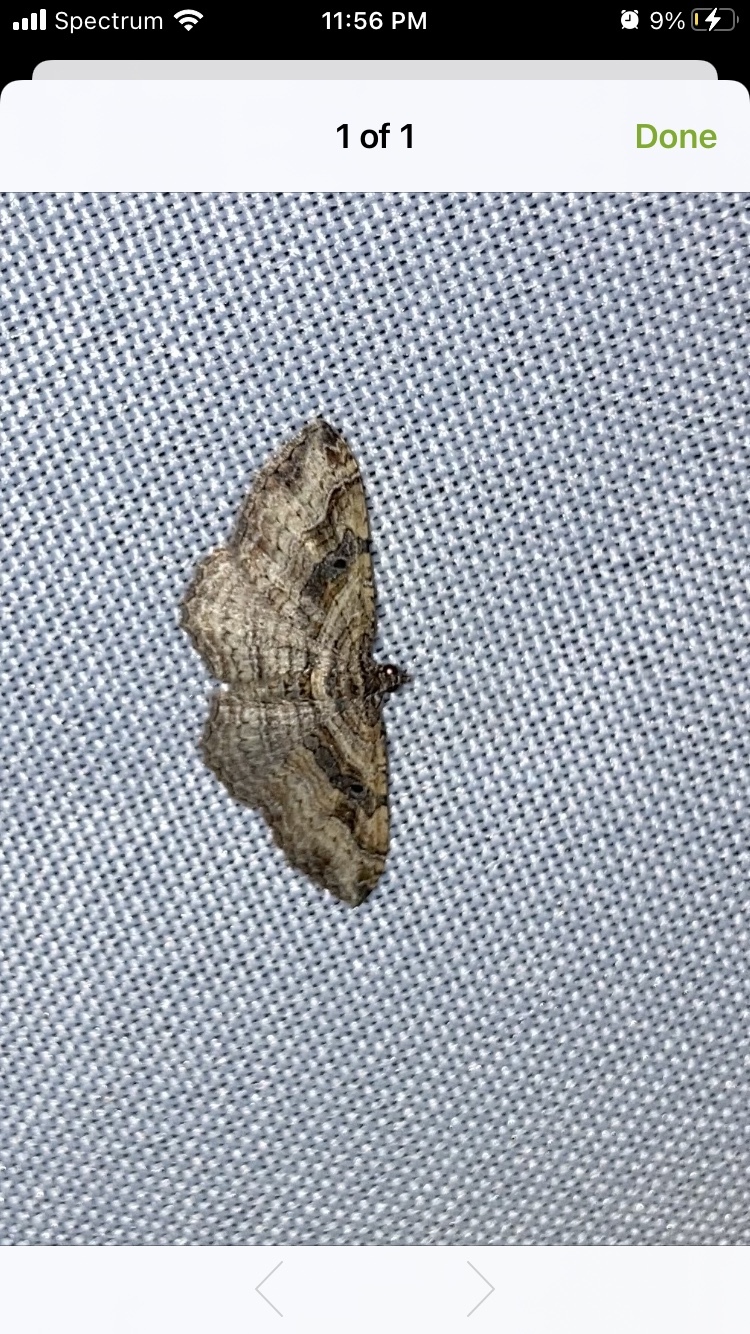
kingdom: Animalia
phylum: Arthropoda
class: Insecta
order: Lepidoptera
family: Geometridae
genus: Costaconvexa
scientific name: Costaconvexa centrostrigaria
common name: Bent-line carpet
